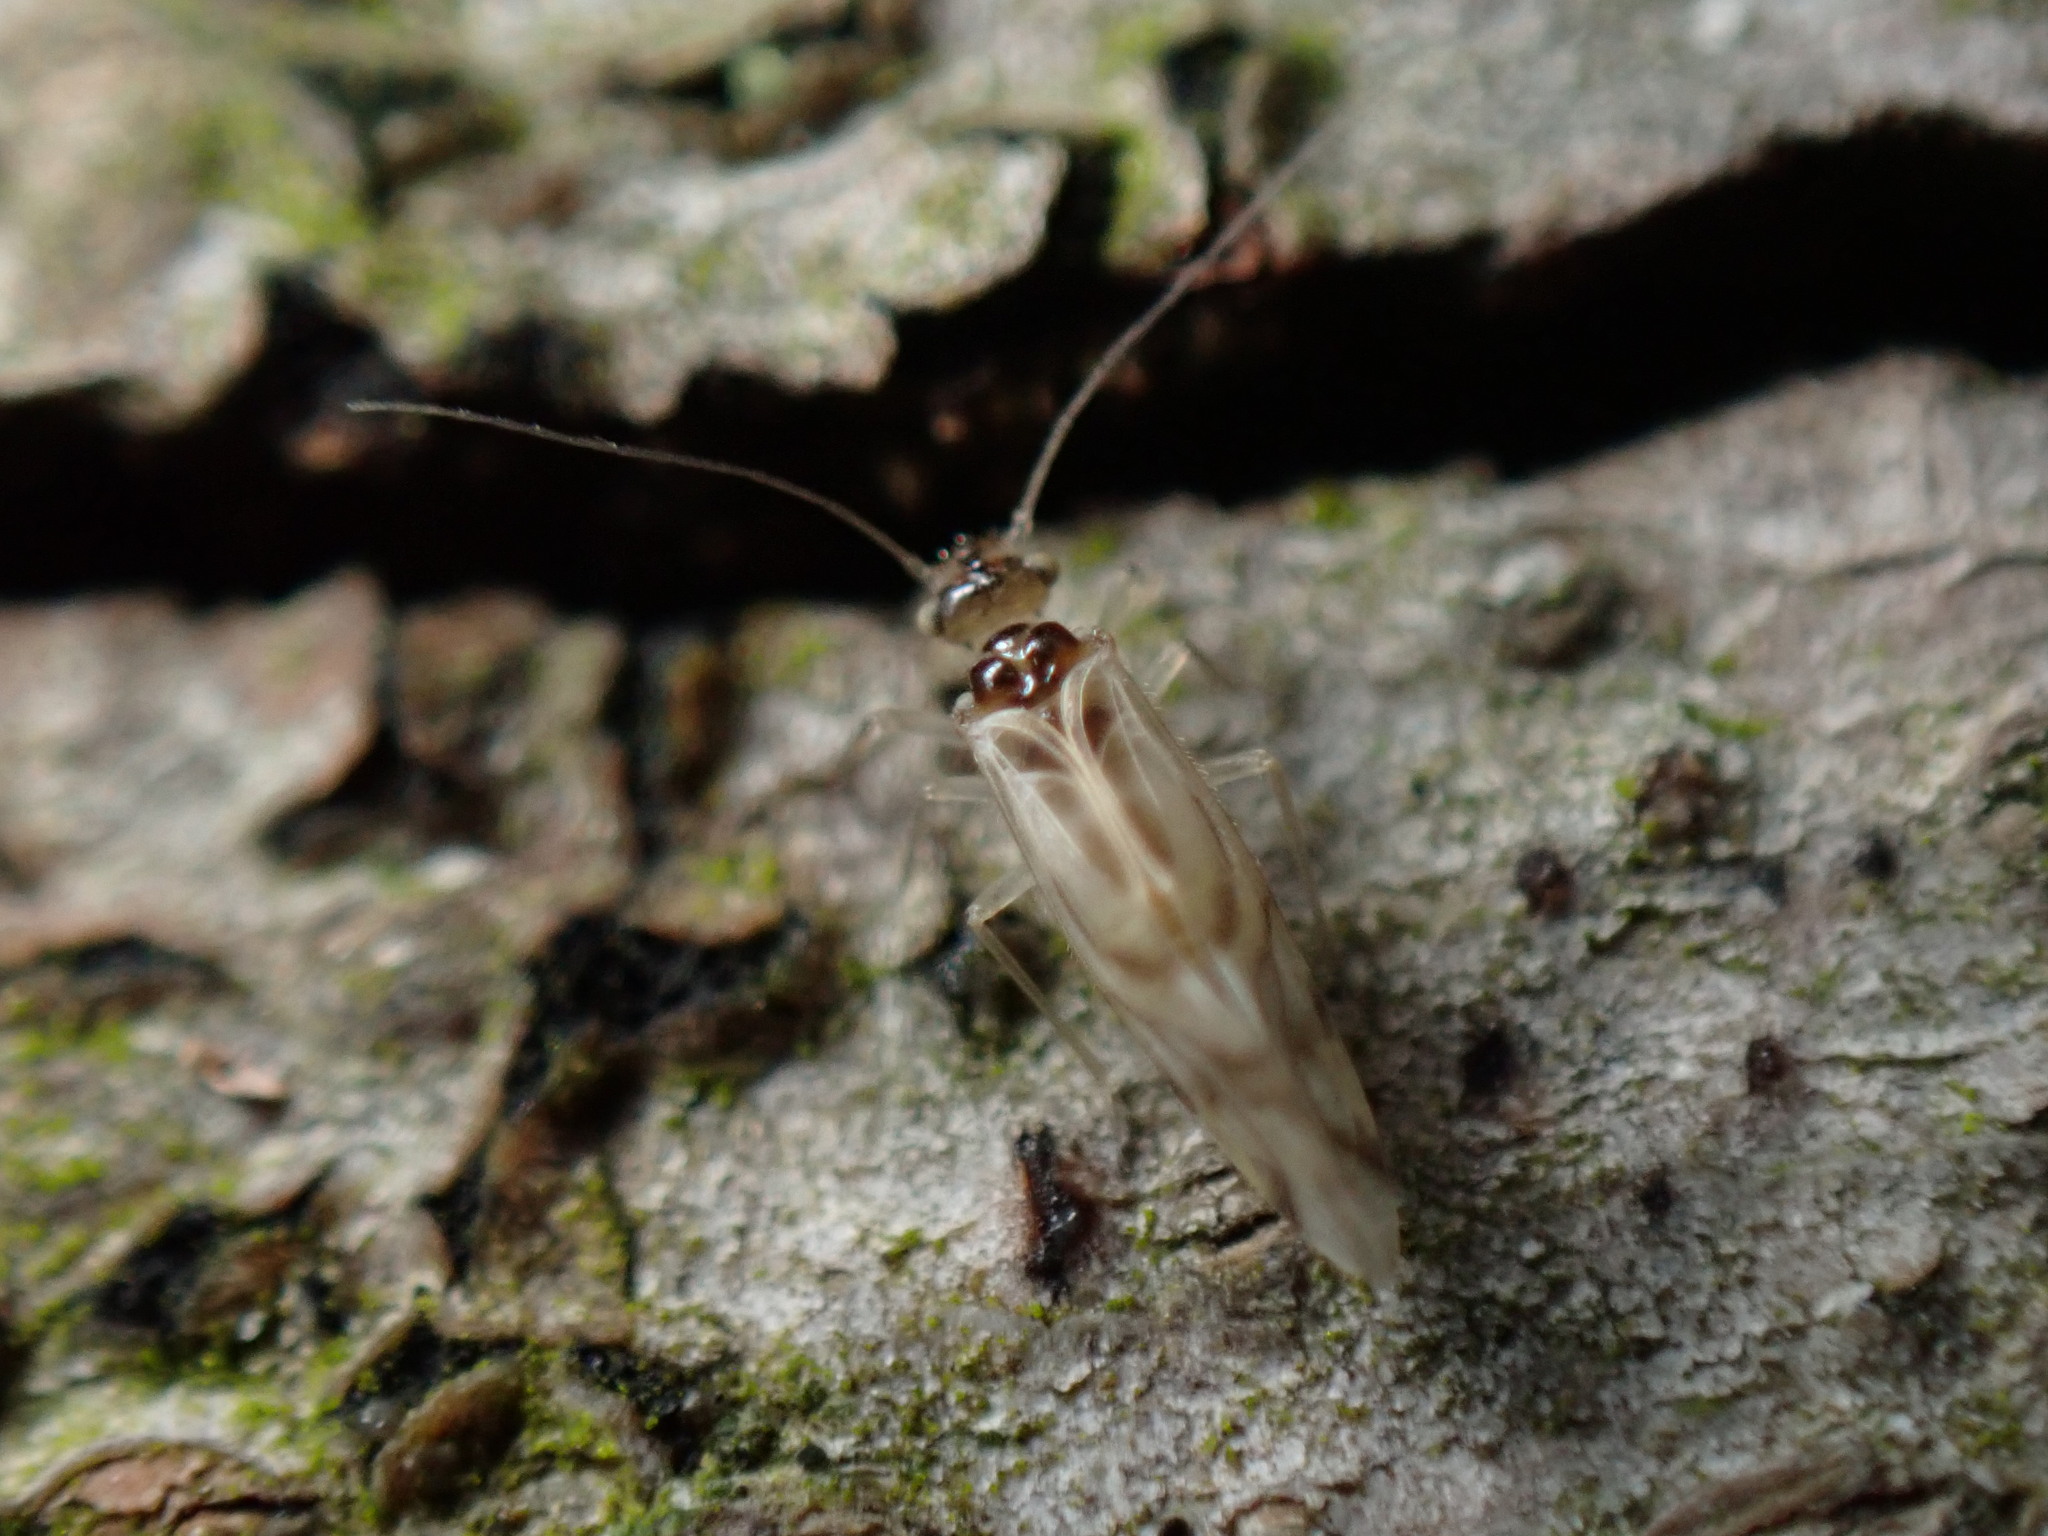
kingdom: Animalia
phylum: Arthropoda
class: Insecta
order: Psocodea
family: Stenopsocidae
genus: Graphopsocus
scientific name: Graphopsocus cruciatus
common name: Lizard bark louse
